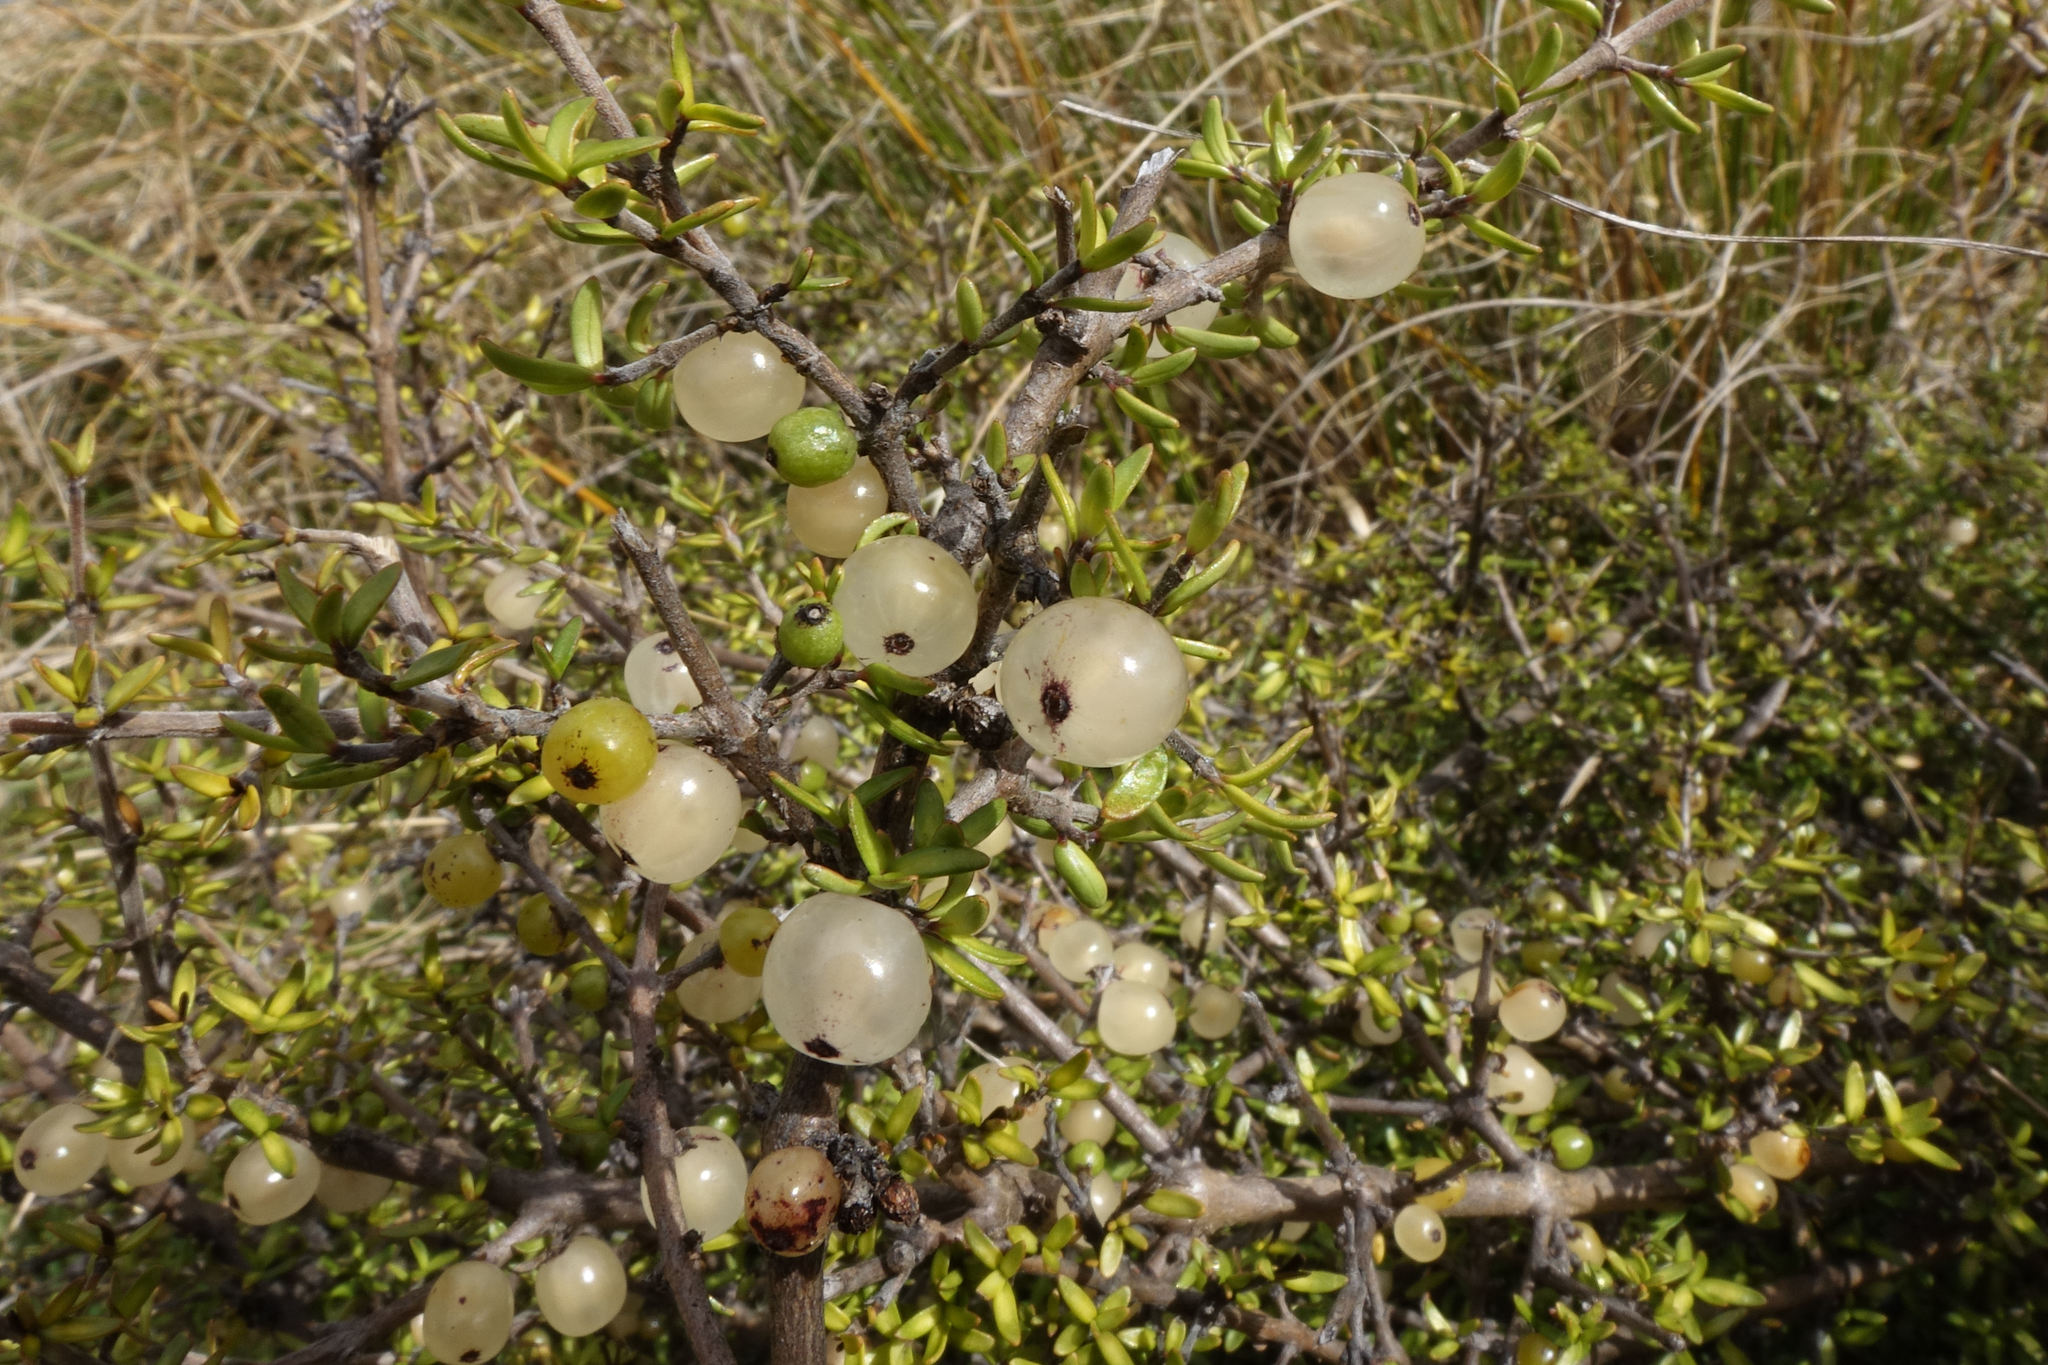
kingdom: Plantae
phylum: Tracheophyta
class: Magnoliopsida
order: Gentianales
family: Rubiaceae
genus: Coprosma
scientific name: Coprosma cheesemanii
